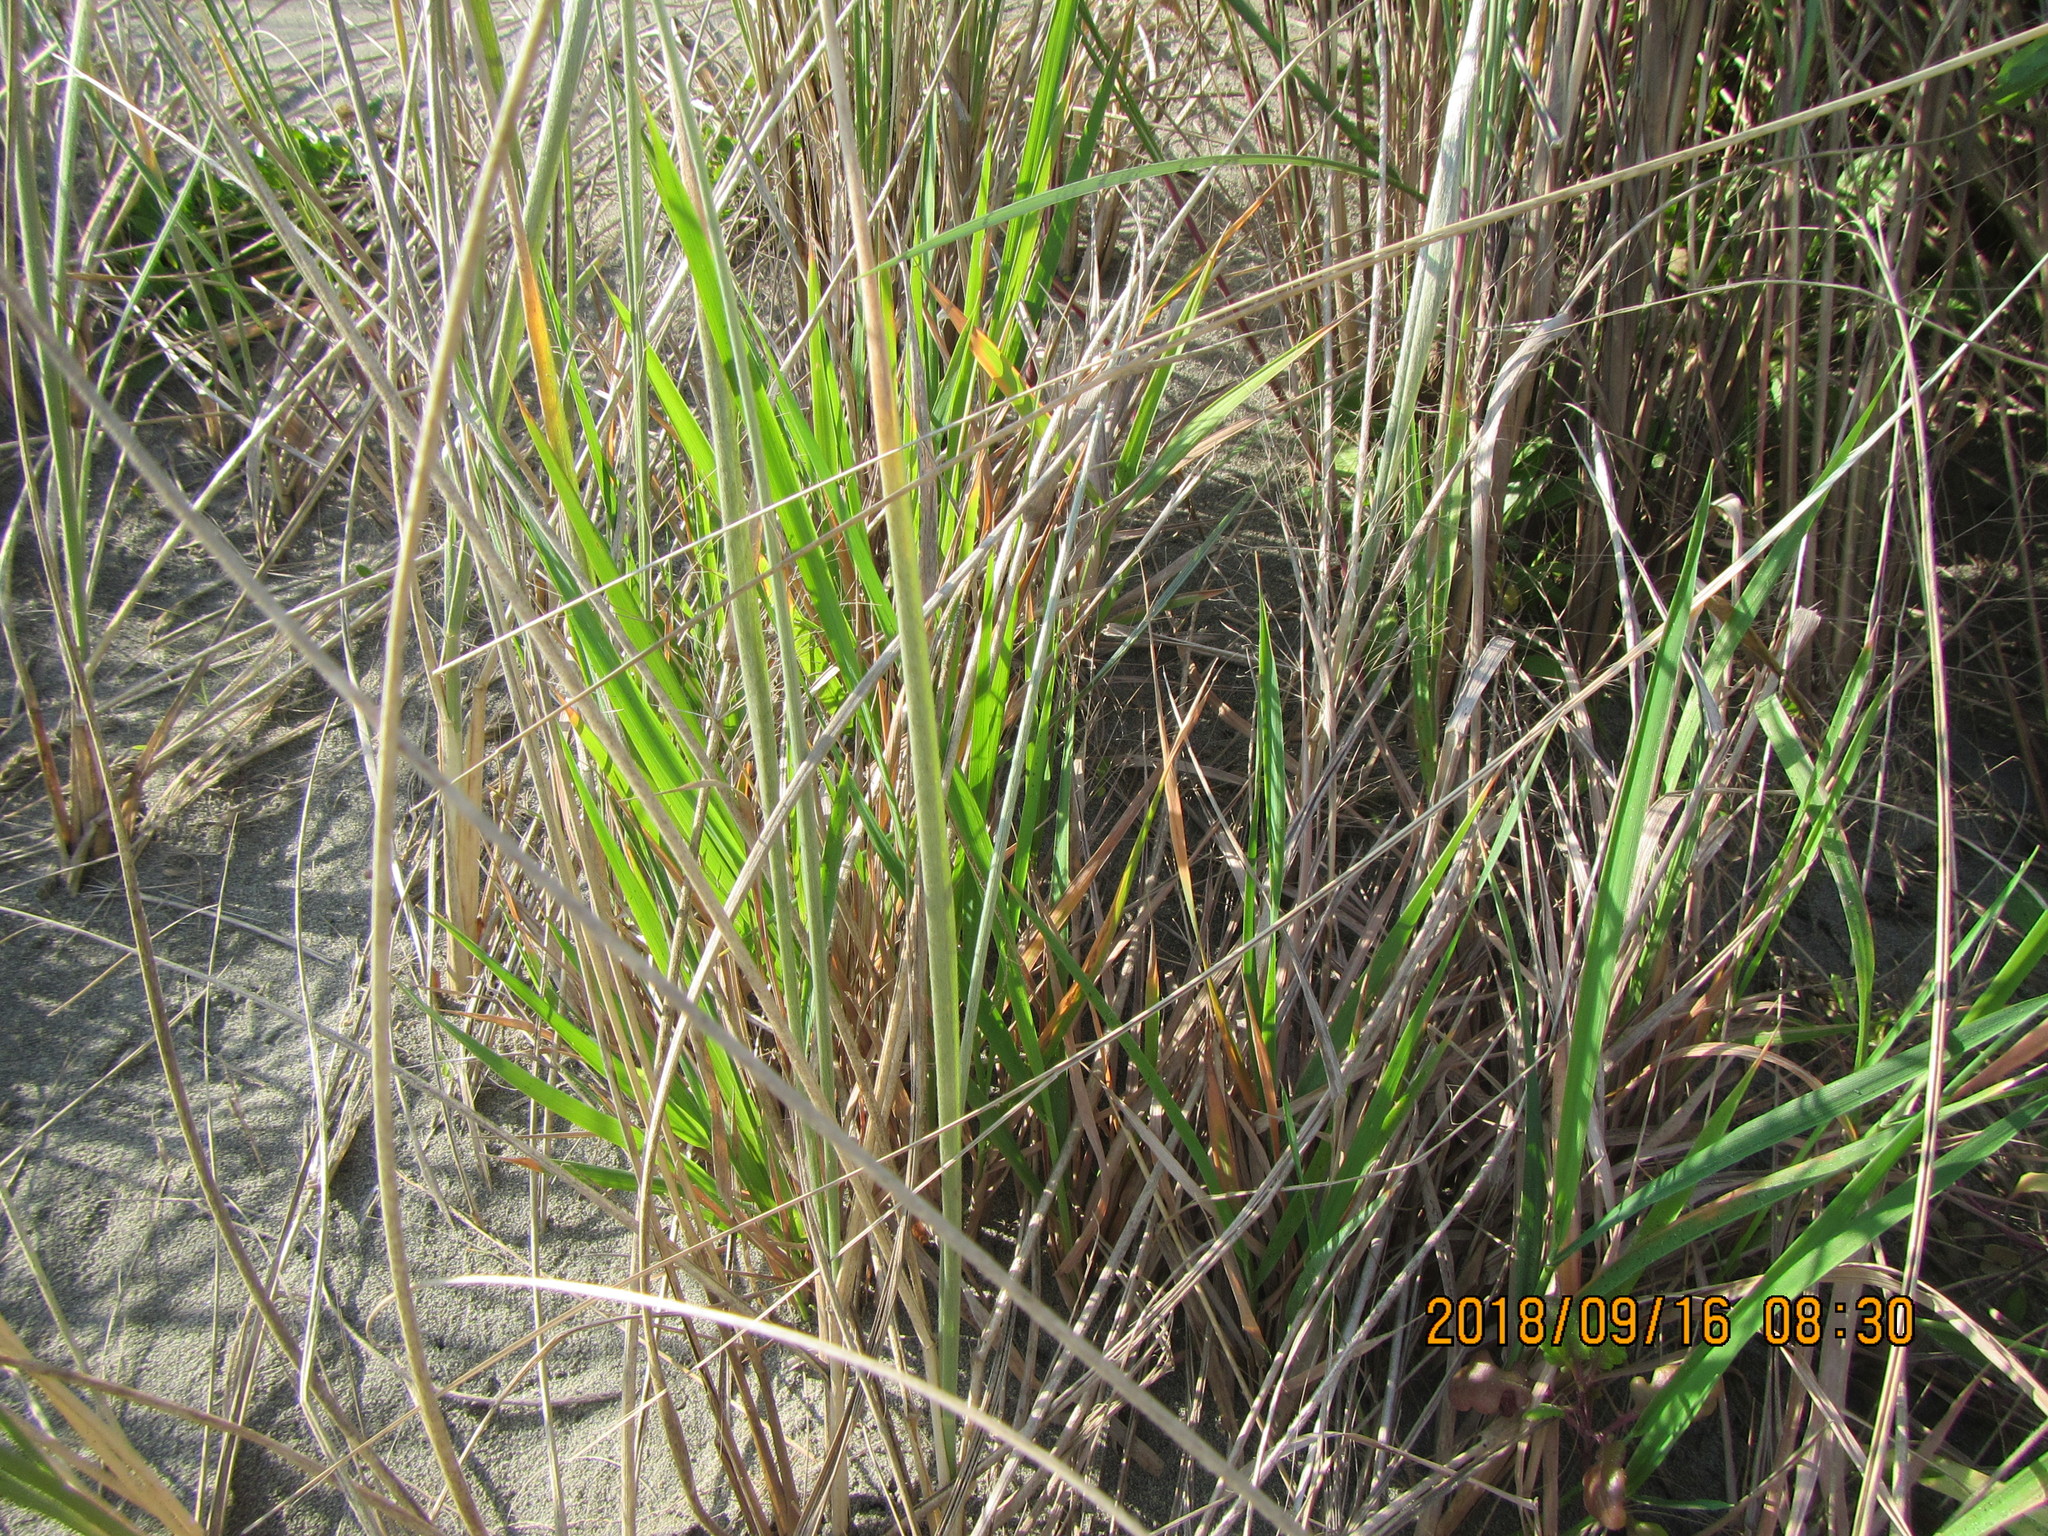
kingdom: Plantae
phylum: Tracheophyta
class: Liliopsida
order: Poales
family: Poaceae
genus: Lachnagrostis
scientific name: Lachnagrostis billardierei
